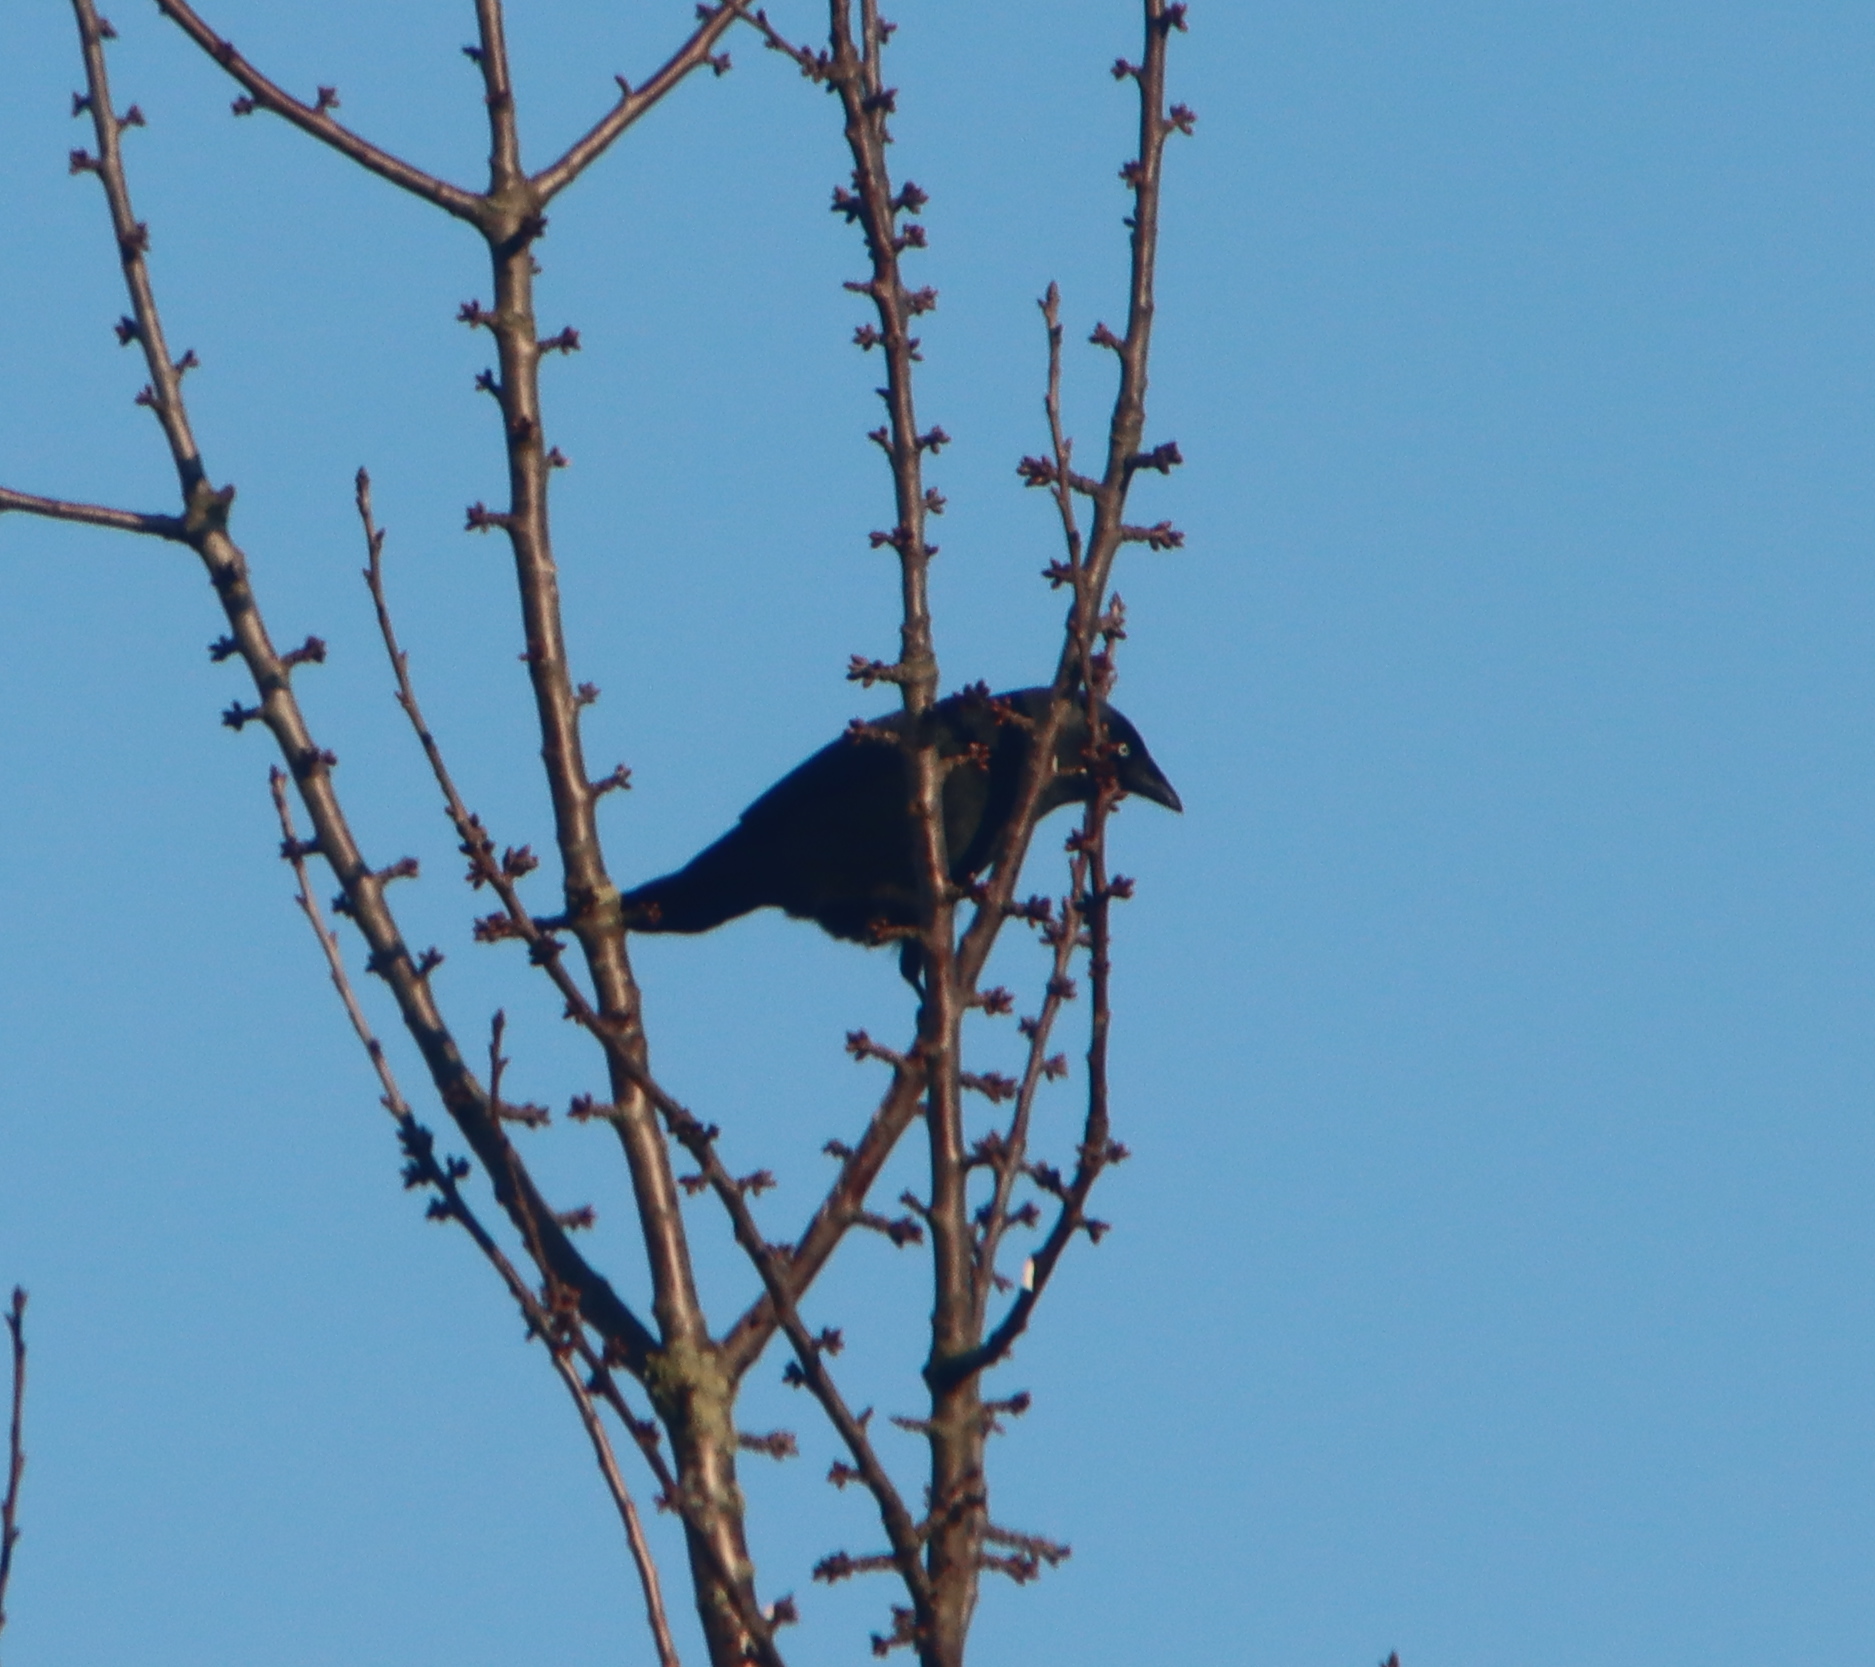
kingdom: Animalia
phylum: Chordata
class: Aves
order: Passeriformes
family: Corvidae
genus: Coloeus
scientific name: Coloeus monedula
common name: Western jackdaw
